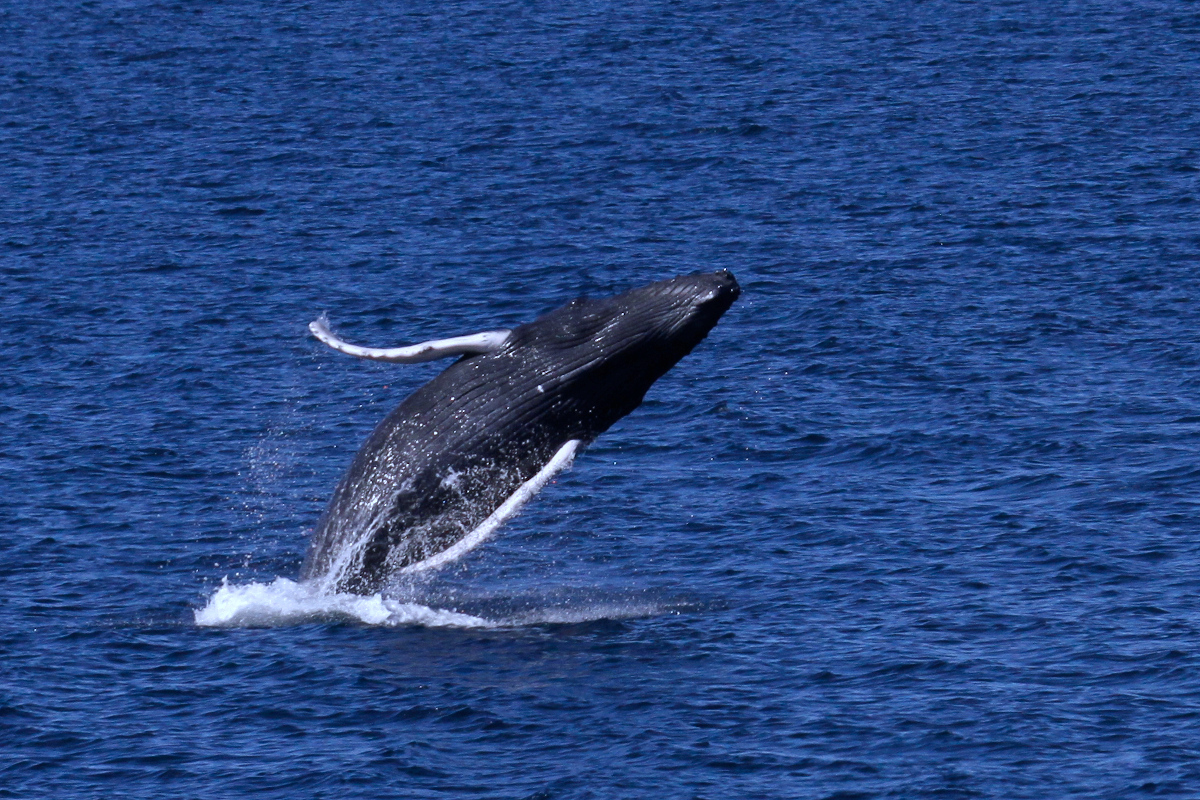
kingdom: Animalia
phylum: Chordata
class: Mammalia
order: Cetacea
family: Balaenopteridae
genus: Megaptera
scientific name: Megaptera novaeangliae
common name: Humpback whale
